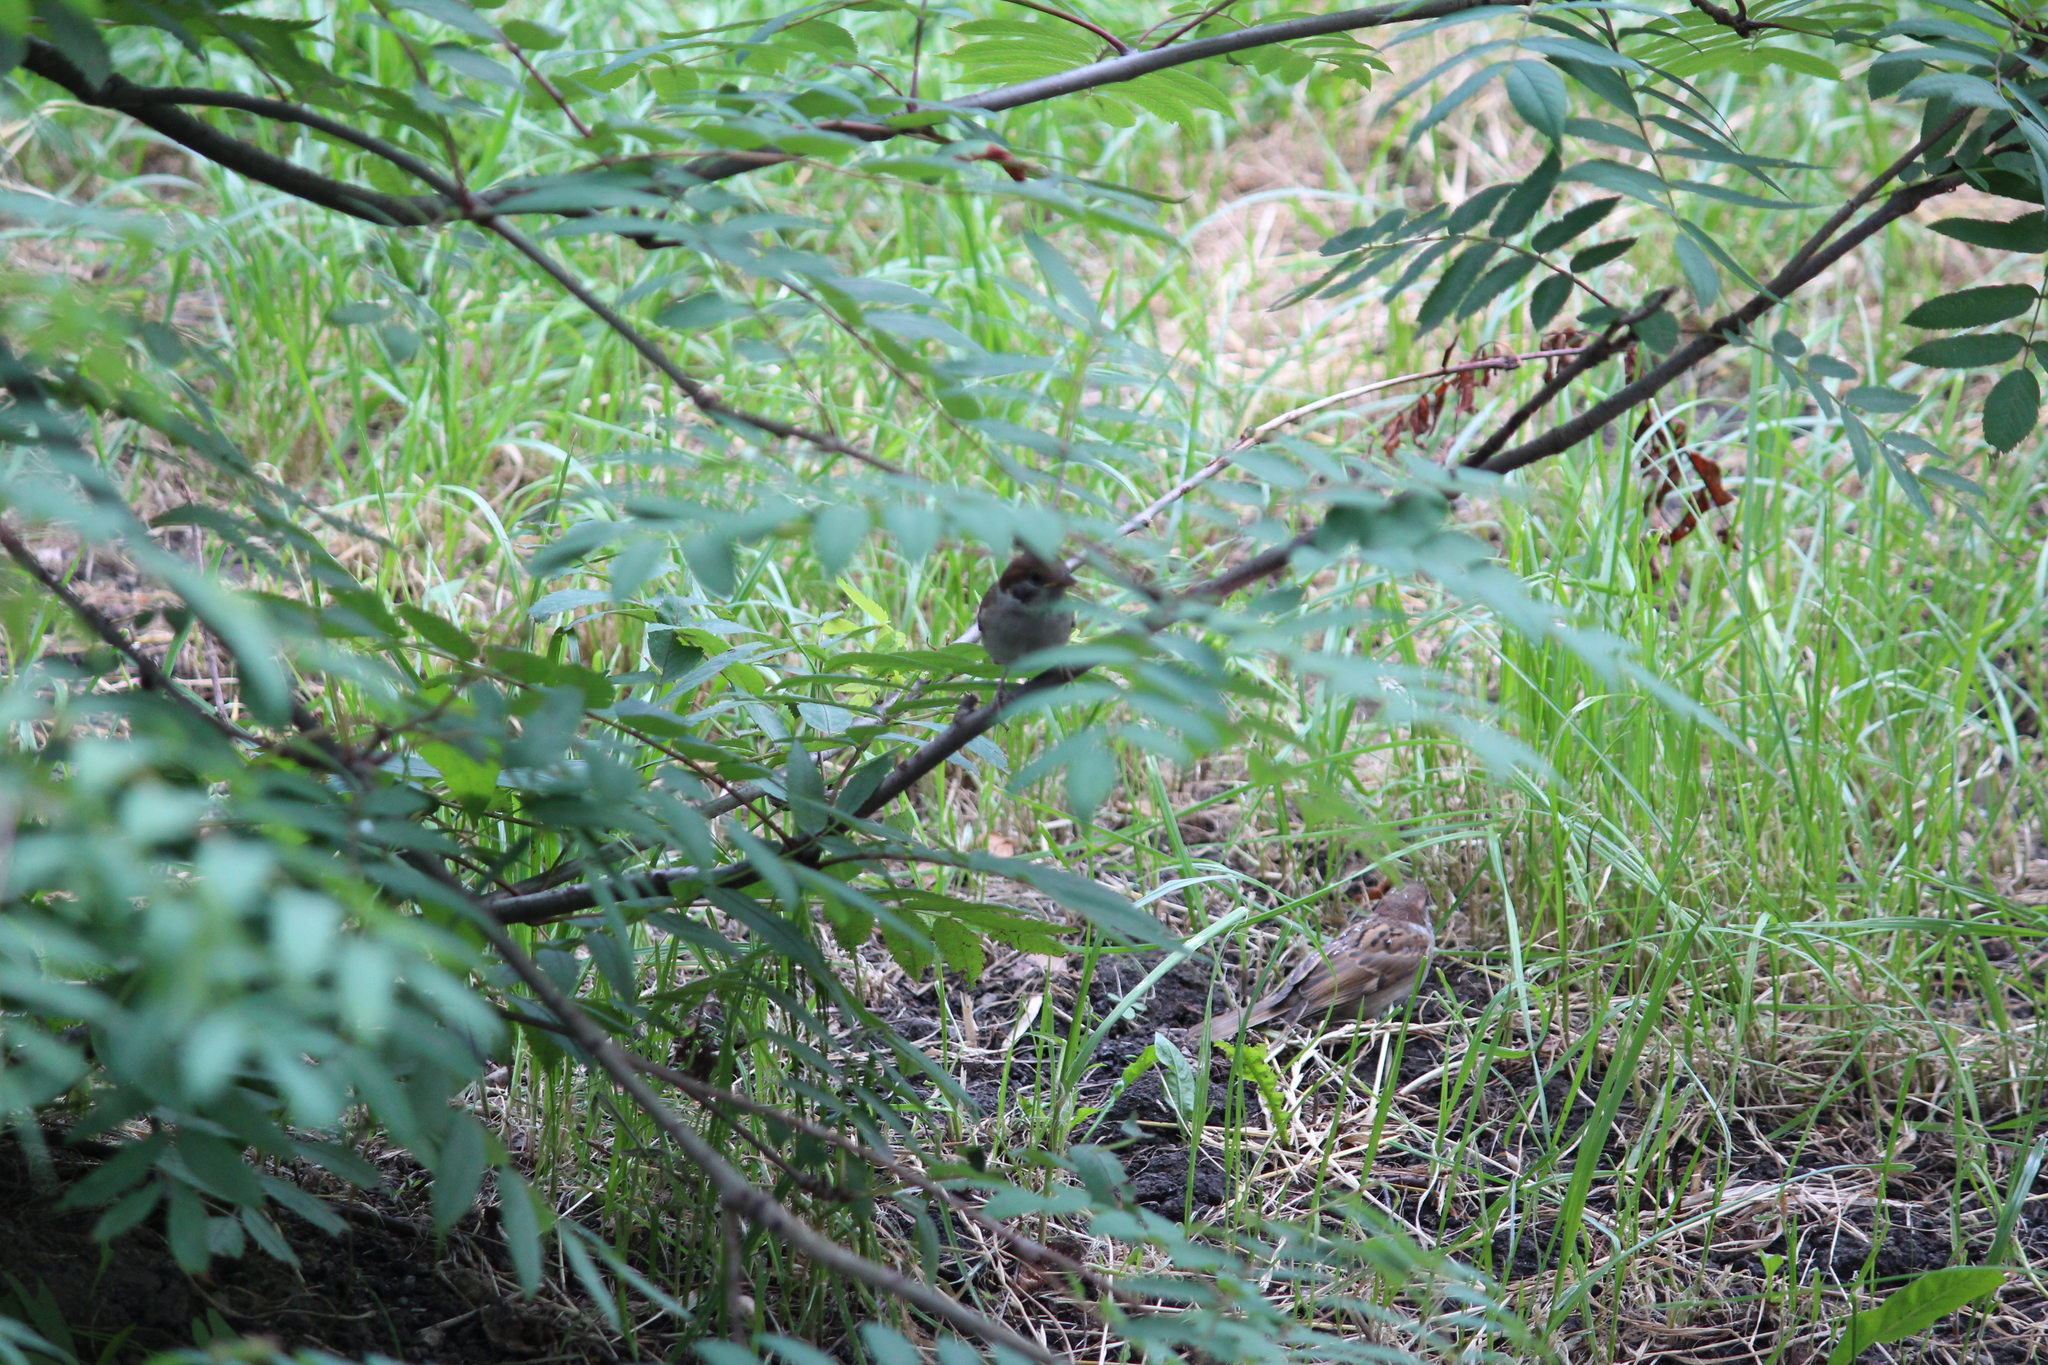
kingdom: Animalia
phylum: Chordata
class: Aves
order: Passeriformes
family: Passeridae
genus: Passer
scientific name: Passer montanus
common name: Eurasian tree sparrow
